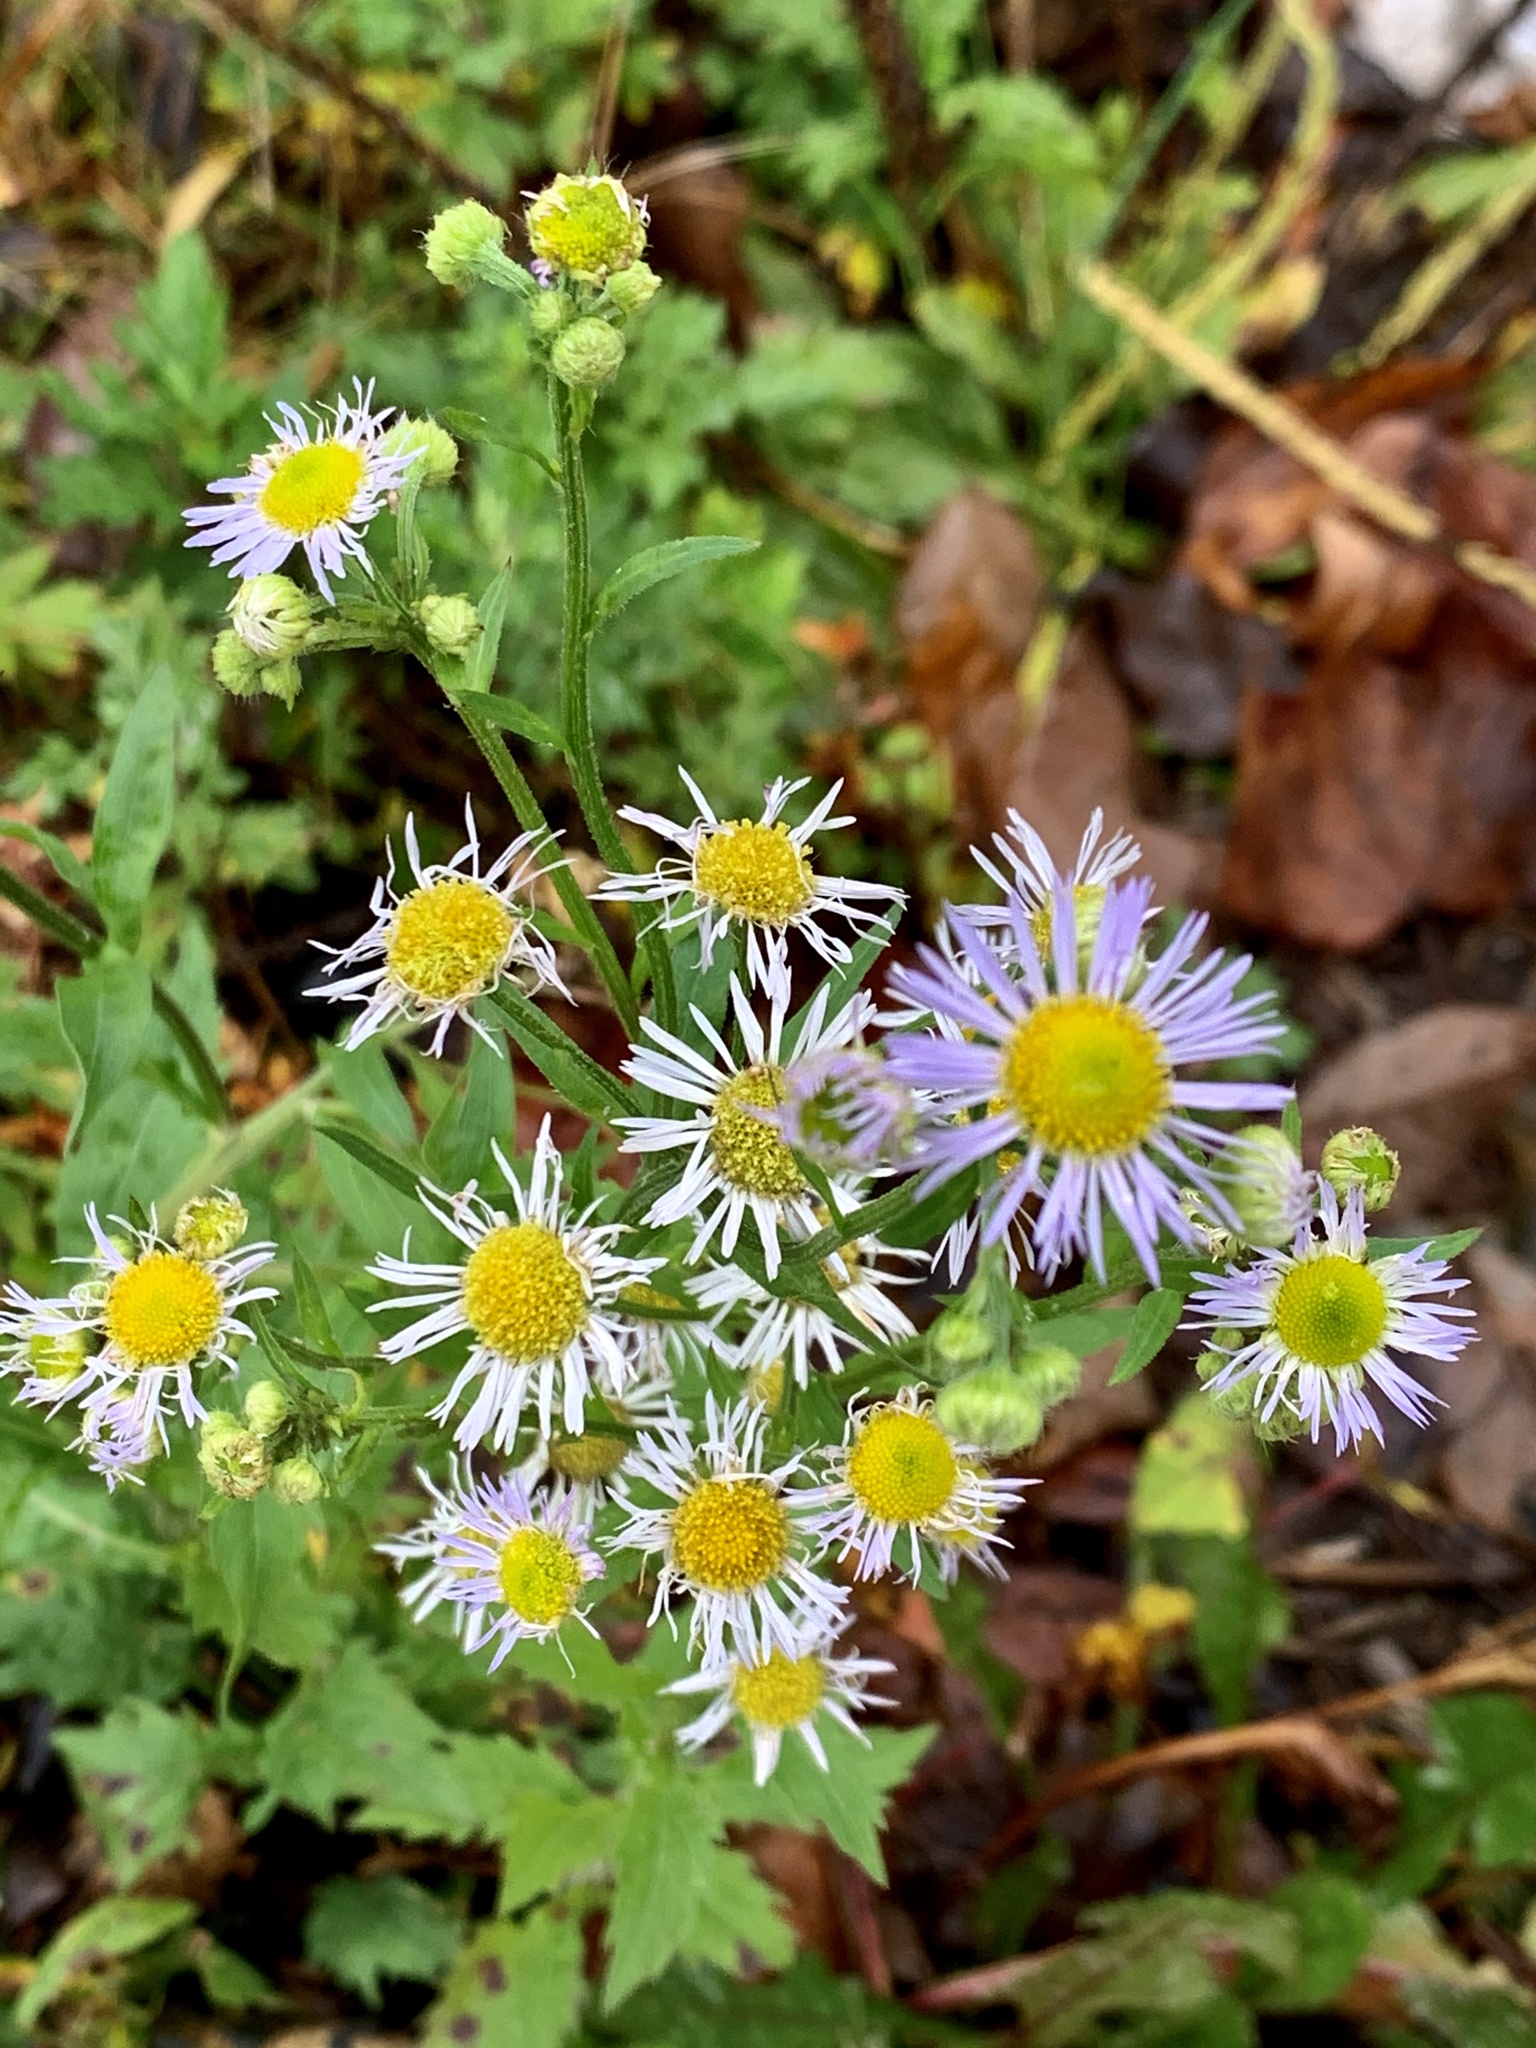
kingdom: Plantae
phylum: Tracheophyta
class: Magnoliopsida
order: Asterales
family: Asteraceae
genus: Erigeron
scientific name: Erigeron annuus
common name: Tall fleabane
